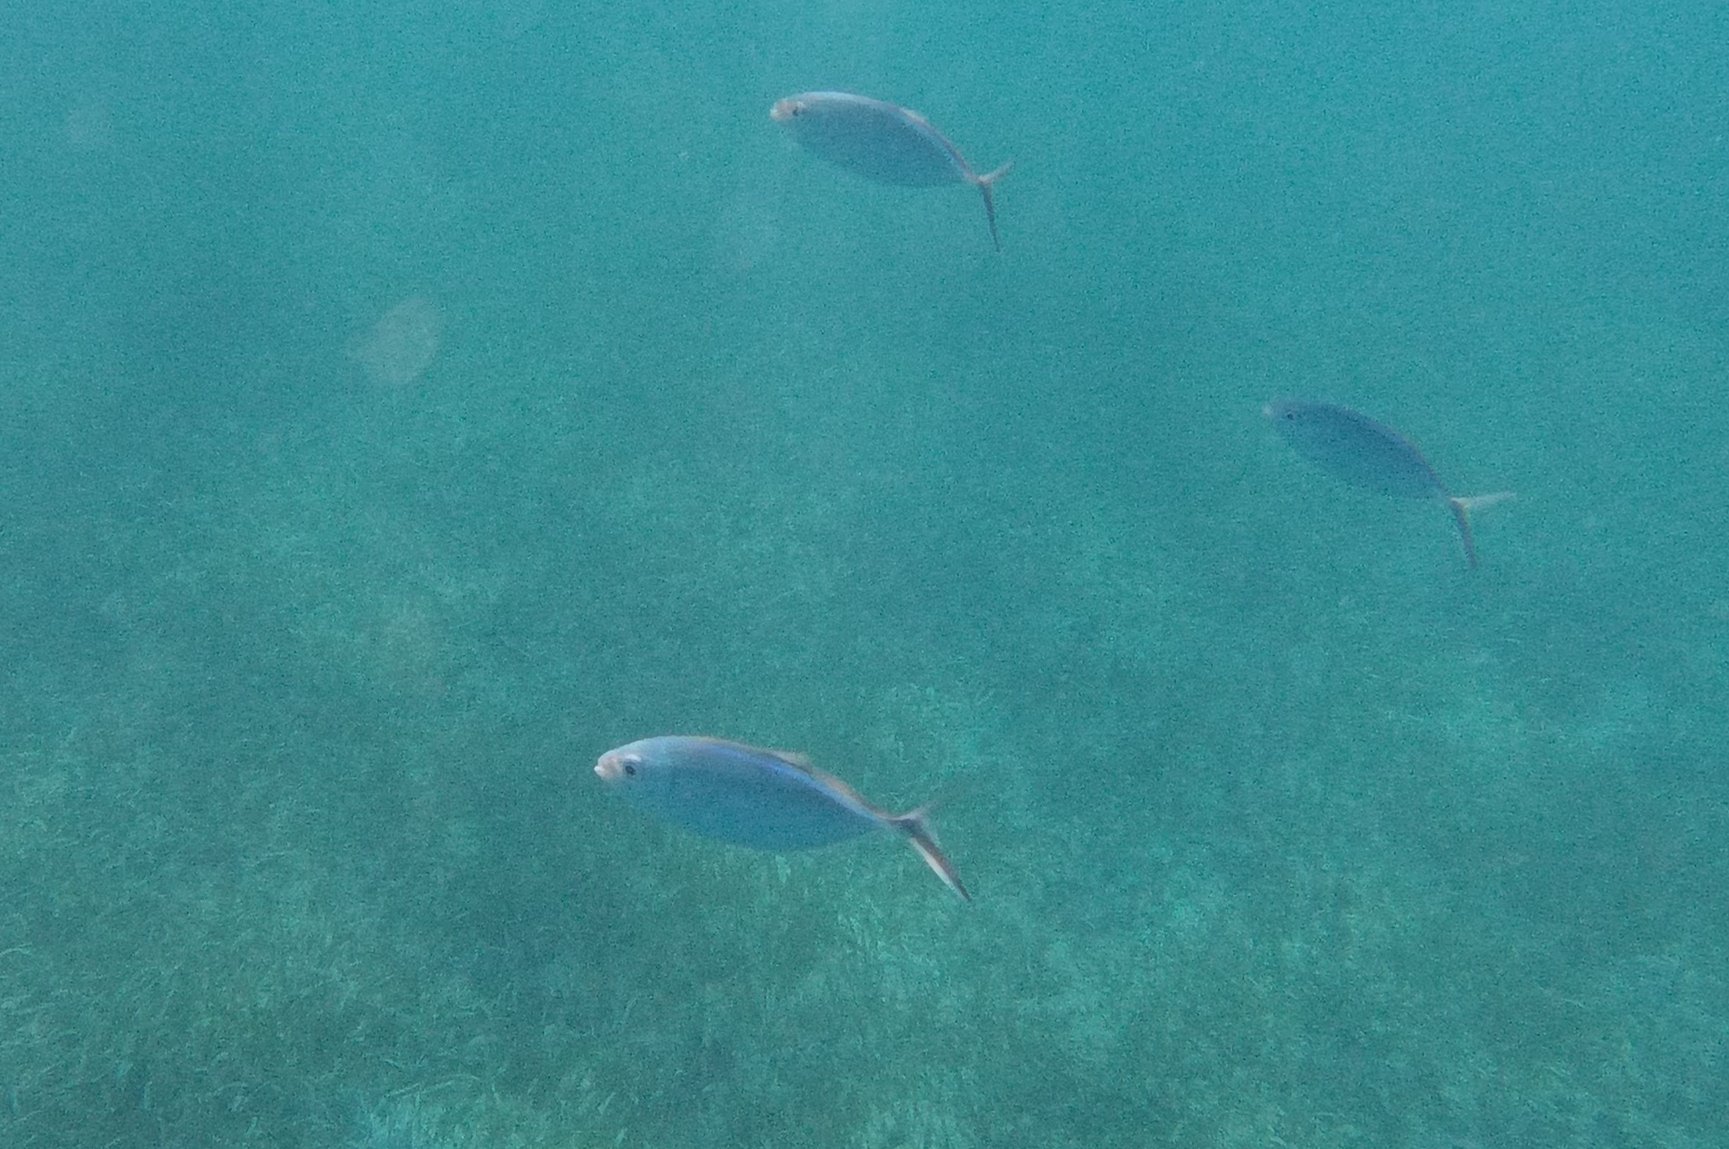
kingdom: Animalia
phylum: Chordata
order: Perciformes
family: Carangidae
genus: Caranx
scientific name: Caranx ruber
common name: Bar jack
